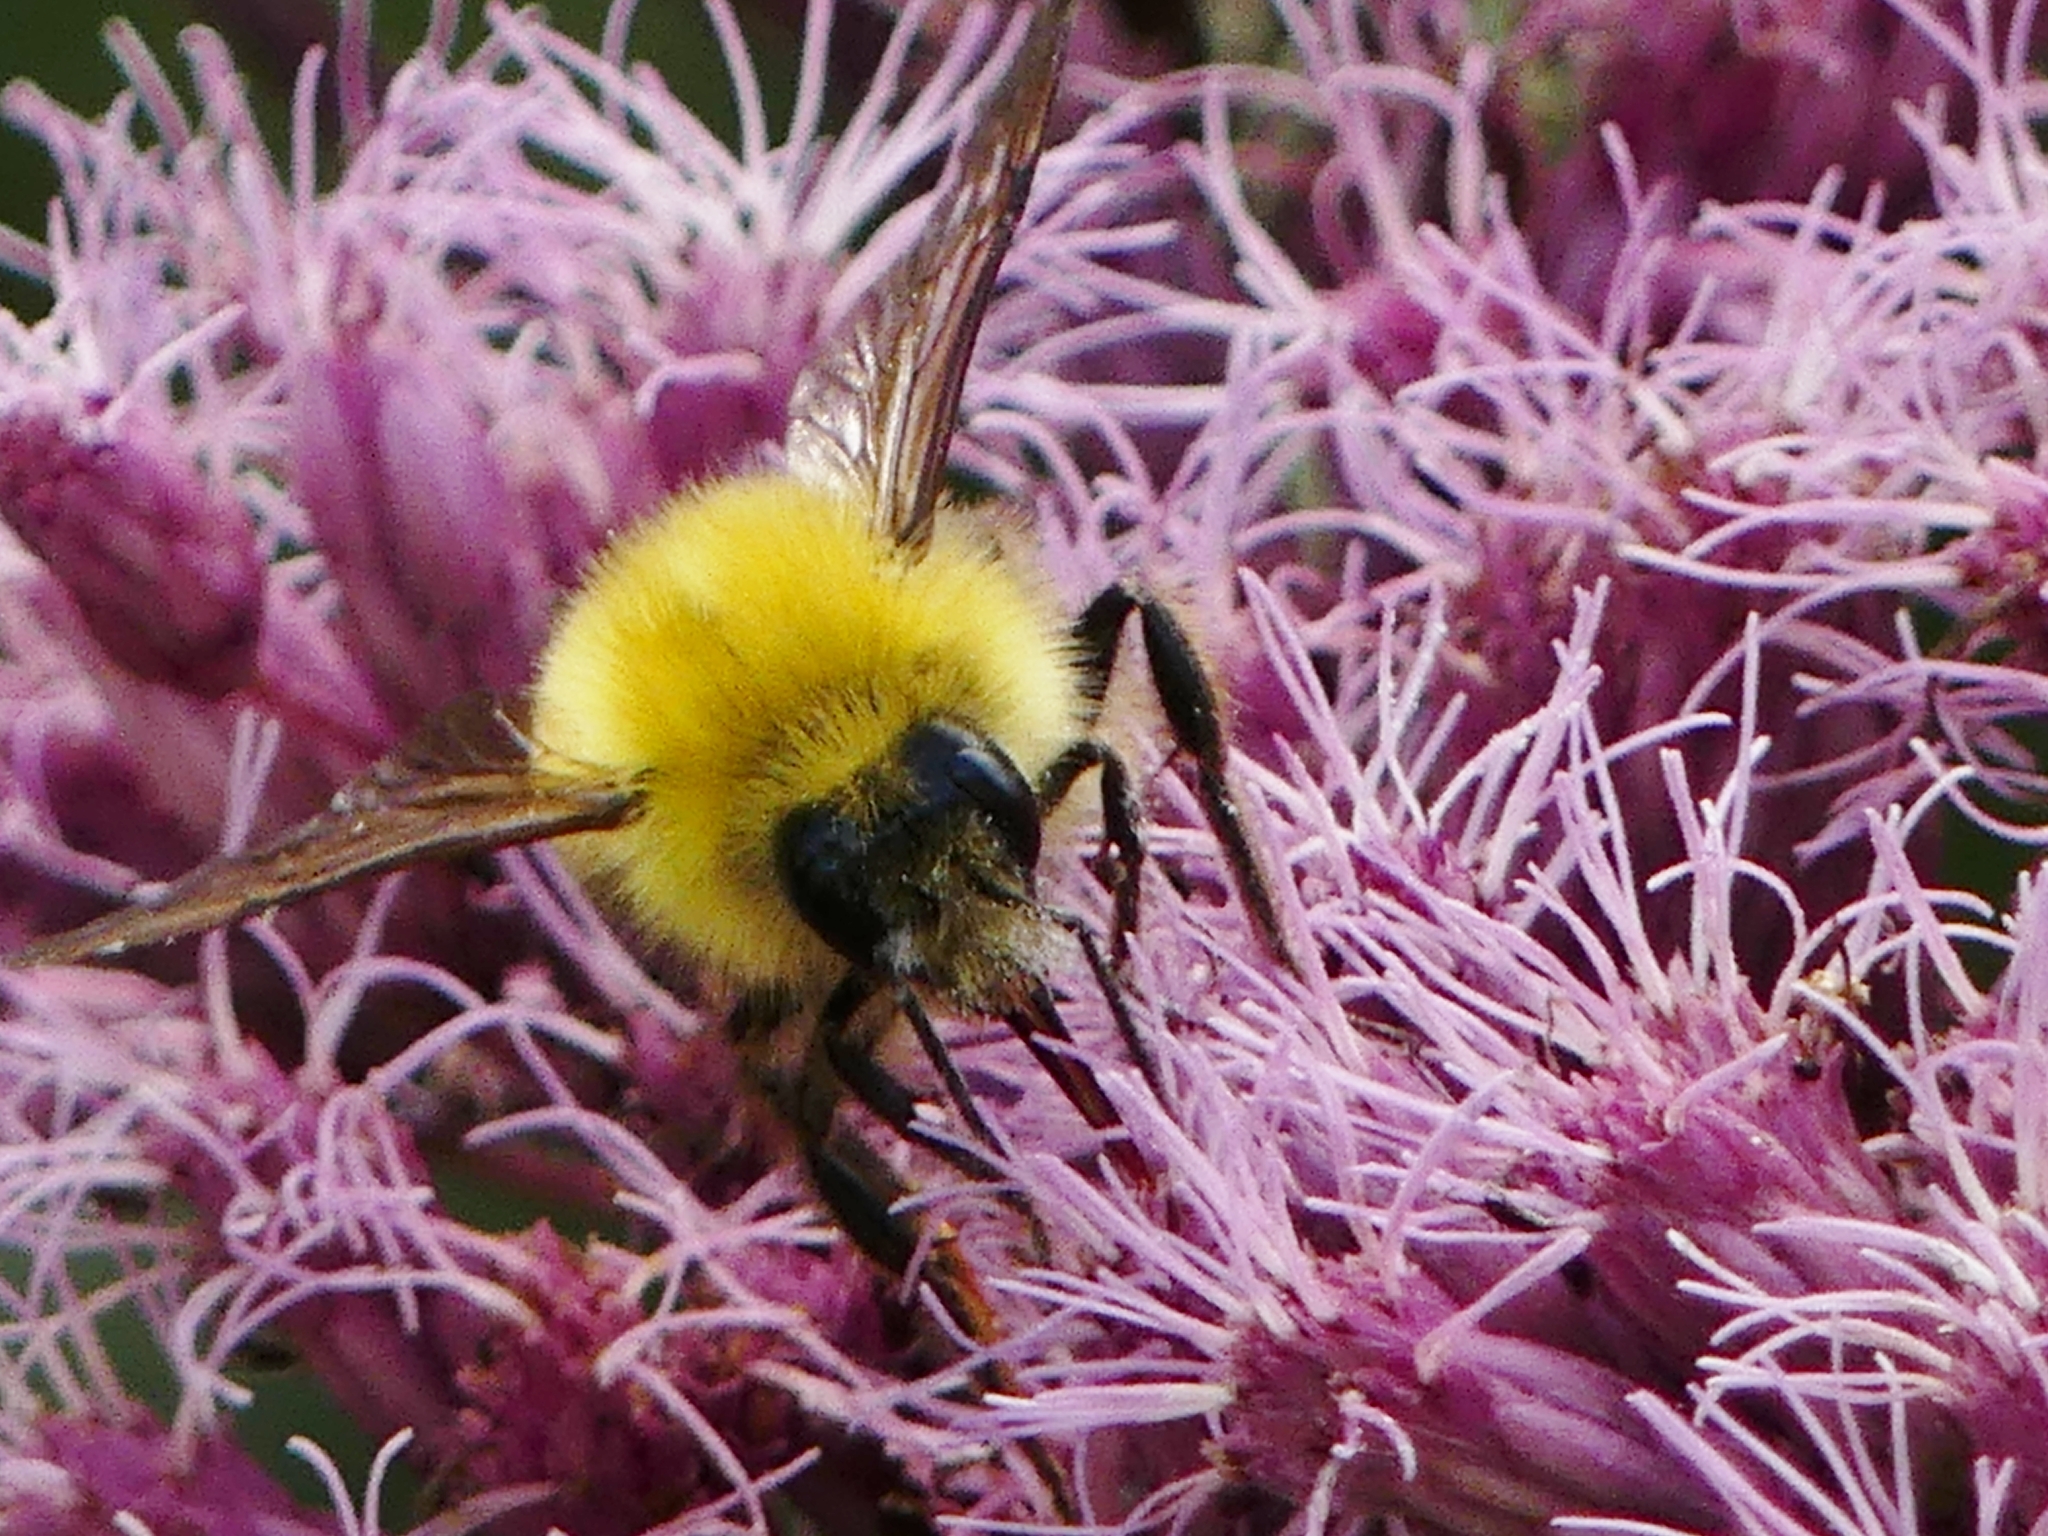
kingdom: Animalia
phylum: Arthropoda
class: Insecta
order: Hymenoptera
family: Apidae
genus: Bombus
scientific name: Bombus perplexus
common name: Confusing bumble bee
